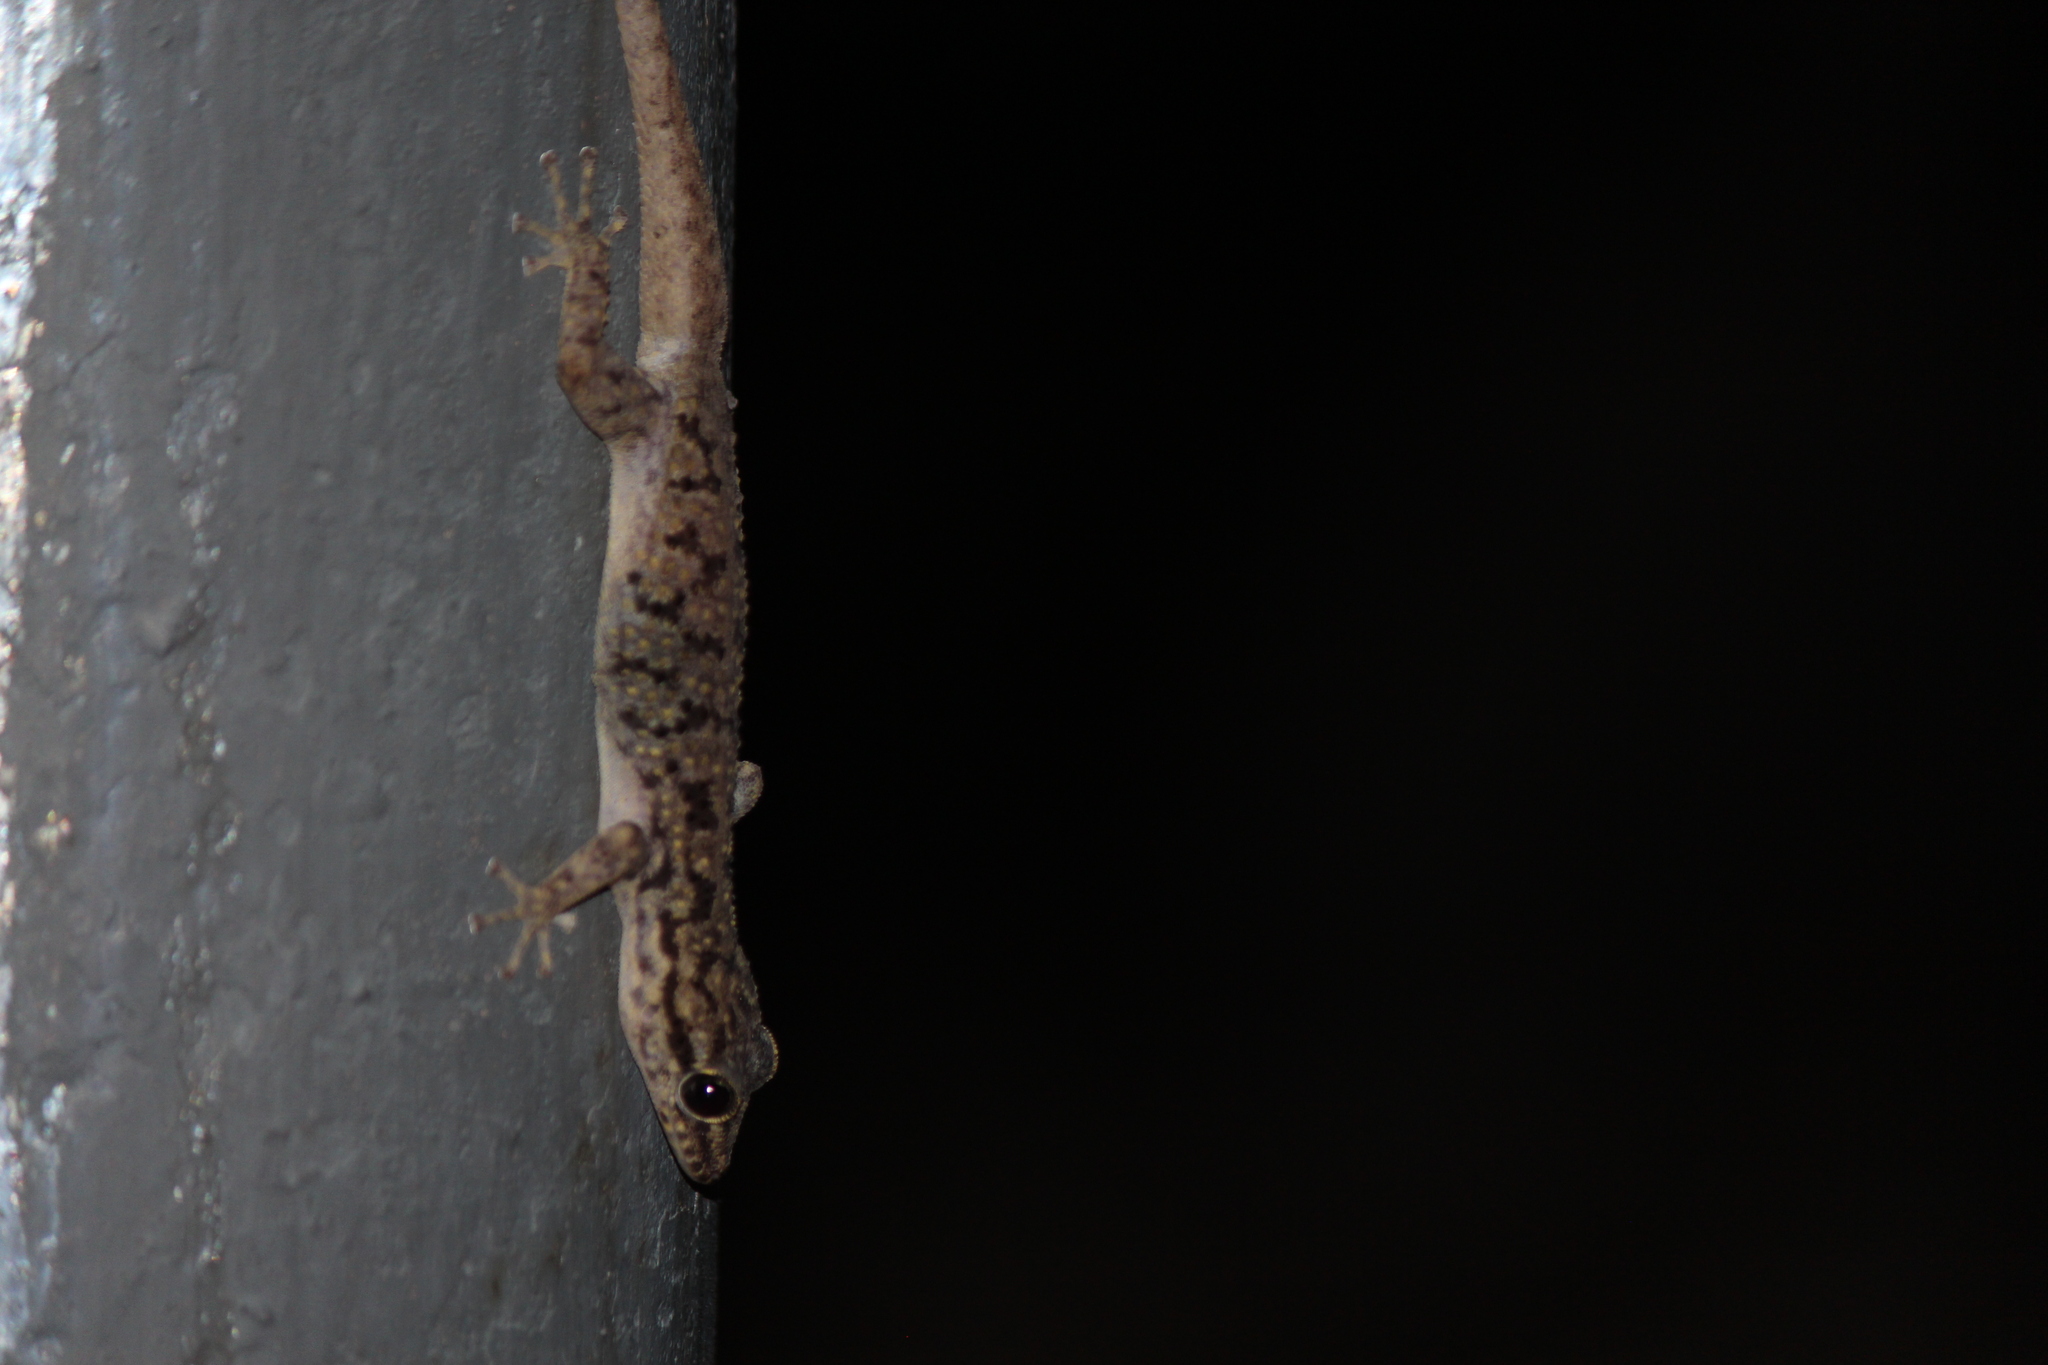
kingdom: Animalia
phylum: Chordata
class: Squamata
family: Phyllodactylidae
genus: Phyllodactylus
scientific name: Phyllodactylus darwini
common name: Darwin's leaf-toed gecko
